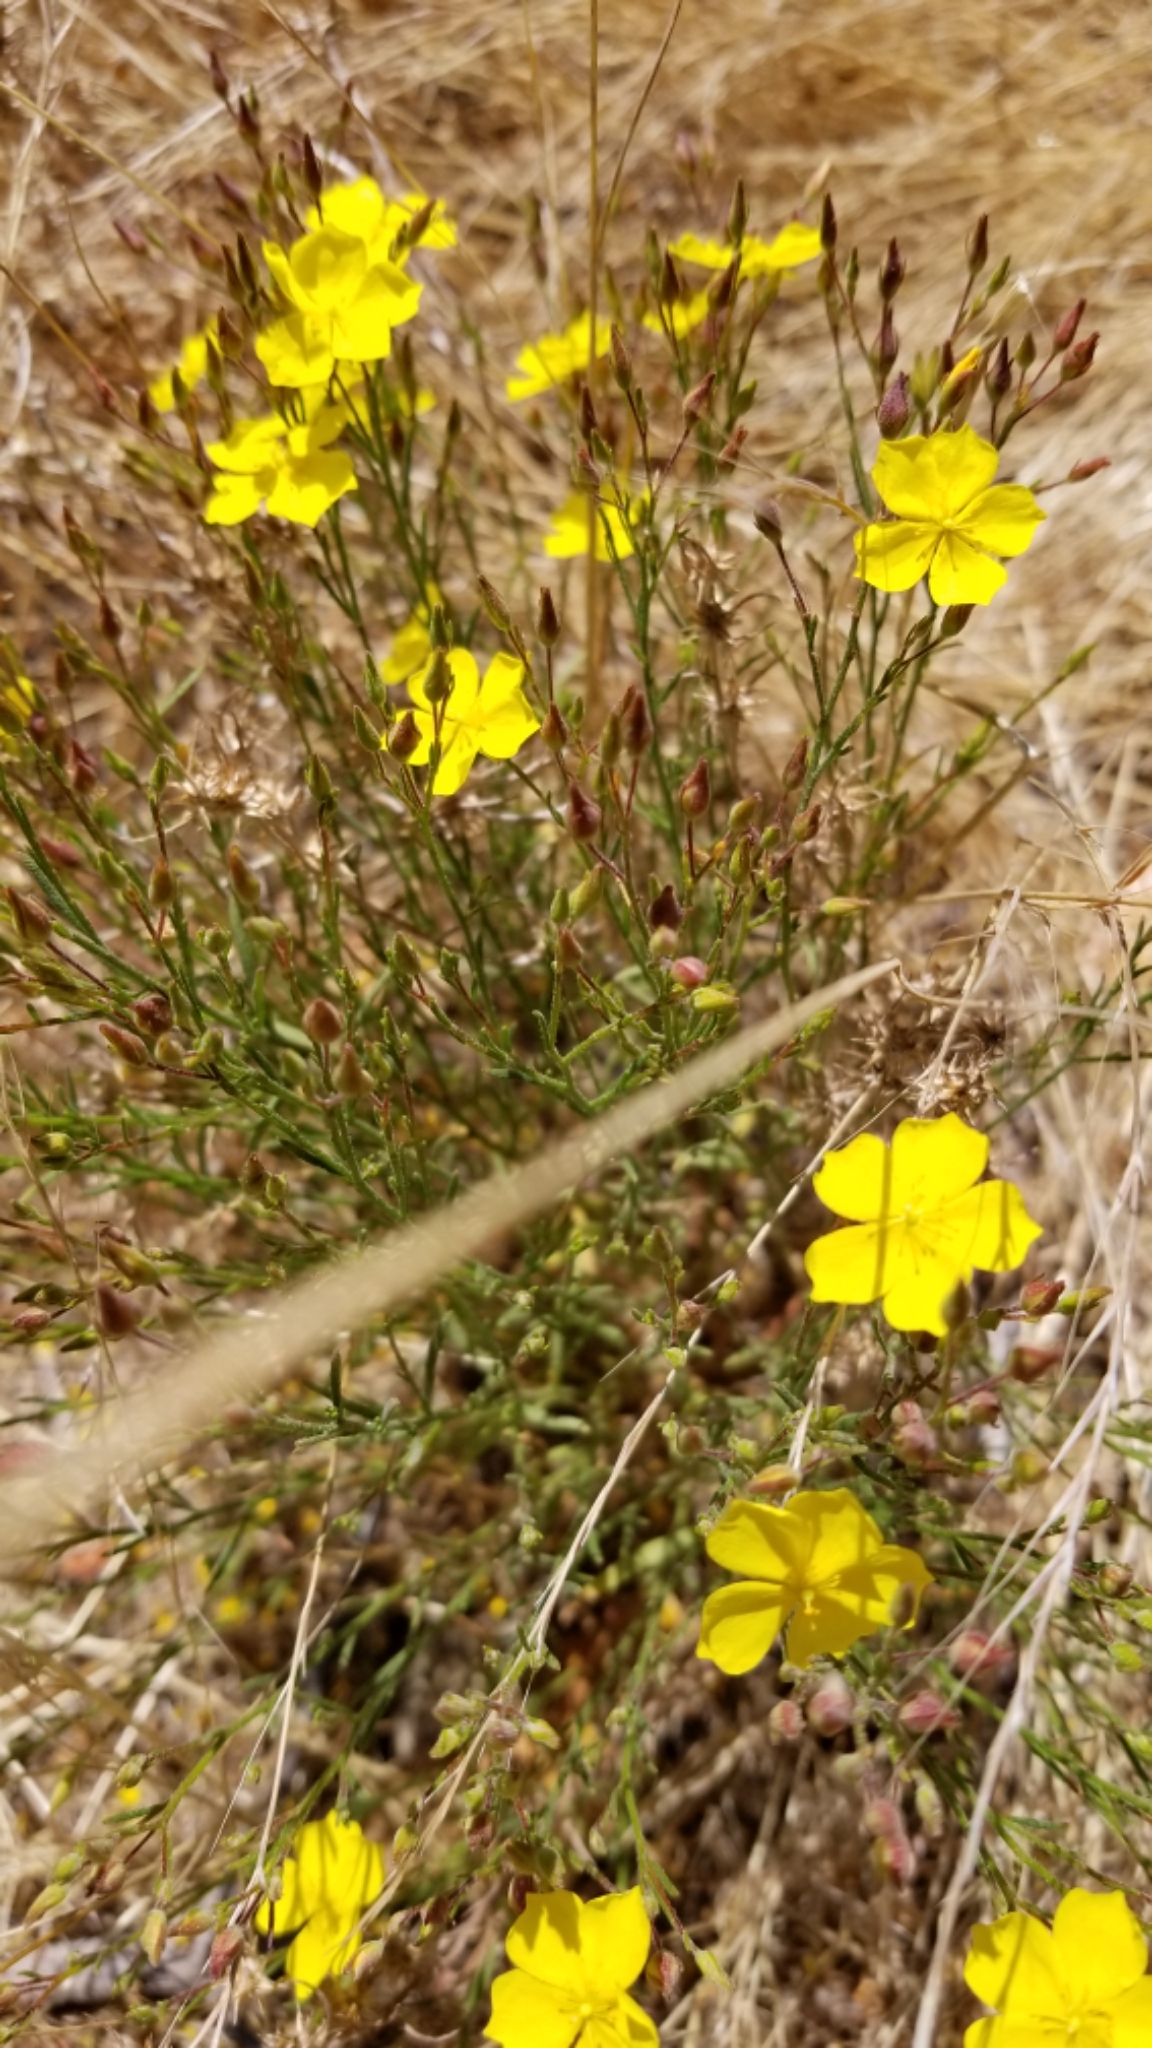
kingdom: Plantae
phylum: Tracheophyta
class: Magnoliopsida
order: Malvales
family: Cistaceae
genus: Crocanthemum
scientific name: Crocanthemum scoparium
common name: Broom-rose
